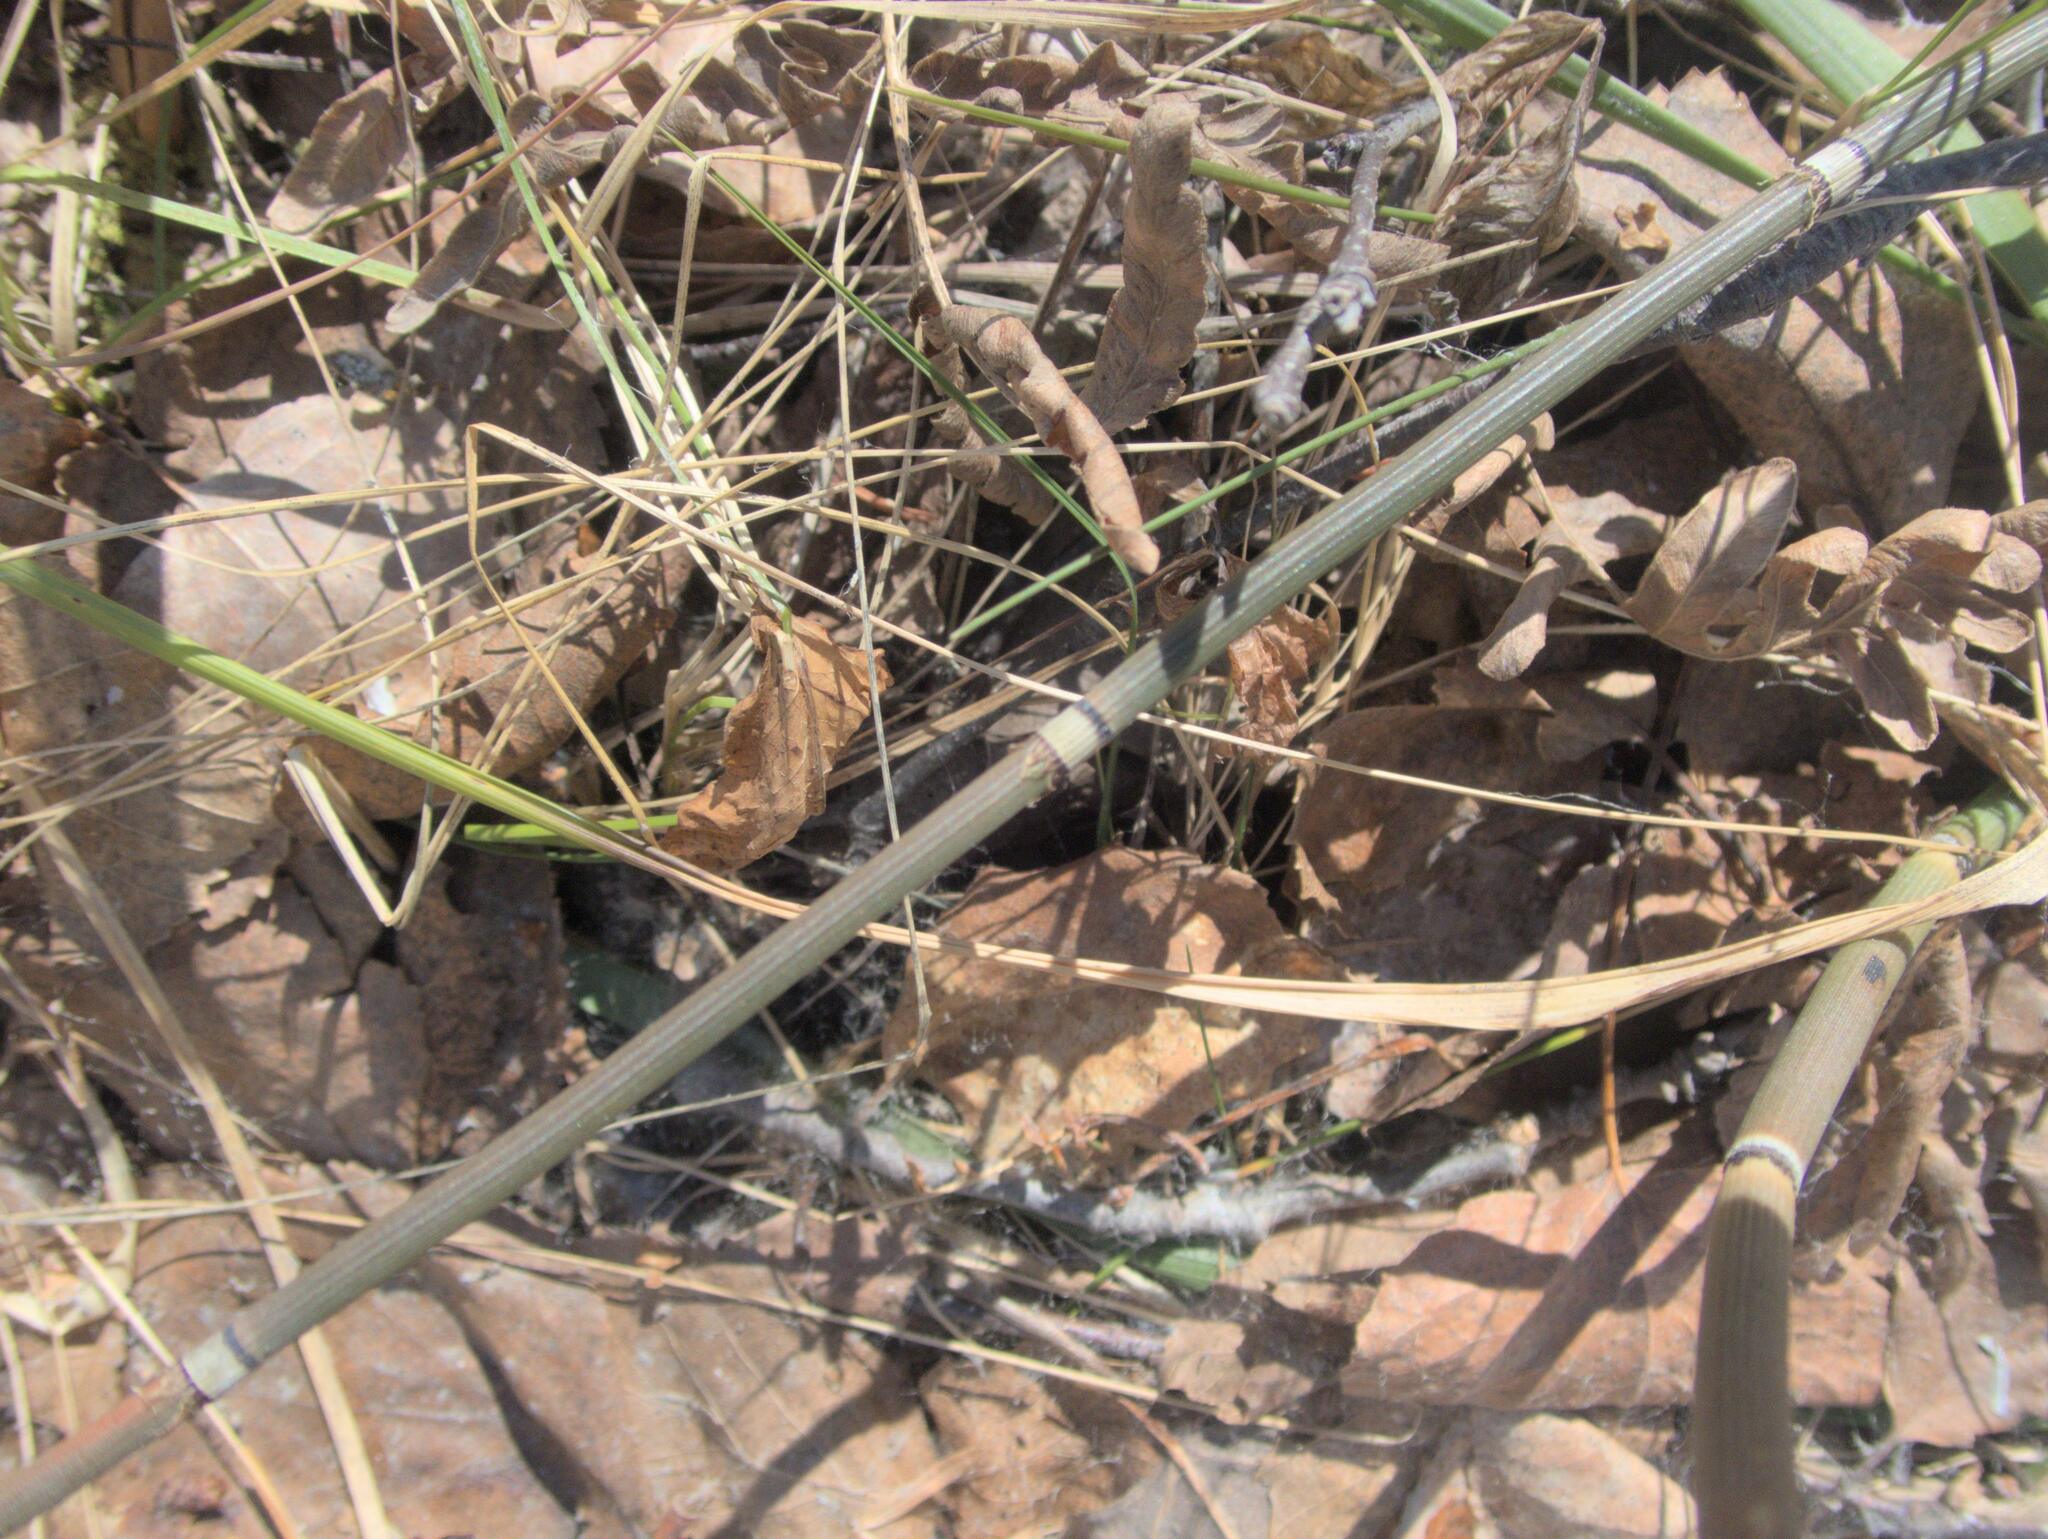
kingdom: Plantae
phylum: Tracheophyta
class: Polypodiopsida
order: Equisetales
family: Equisetaceae
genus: Equisetum
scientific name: Equisetum praealtum
